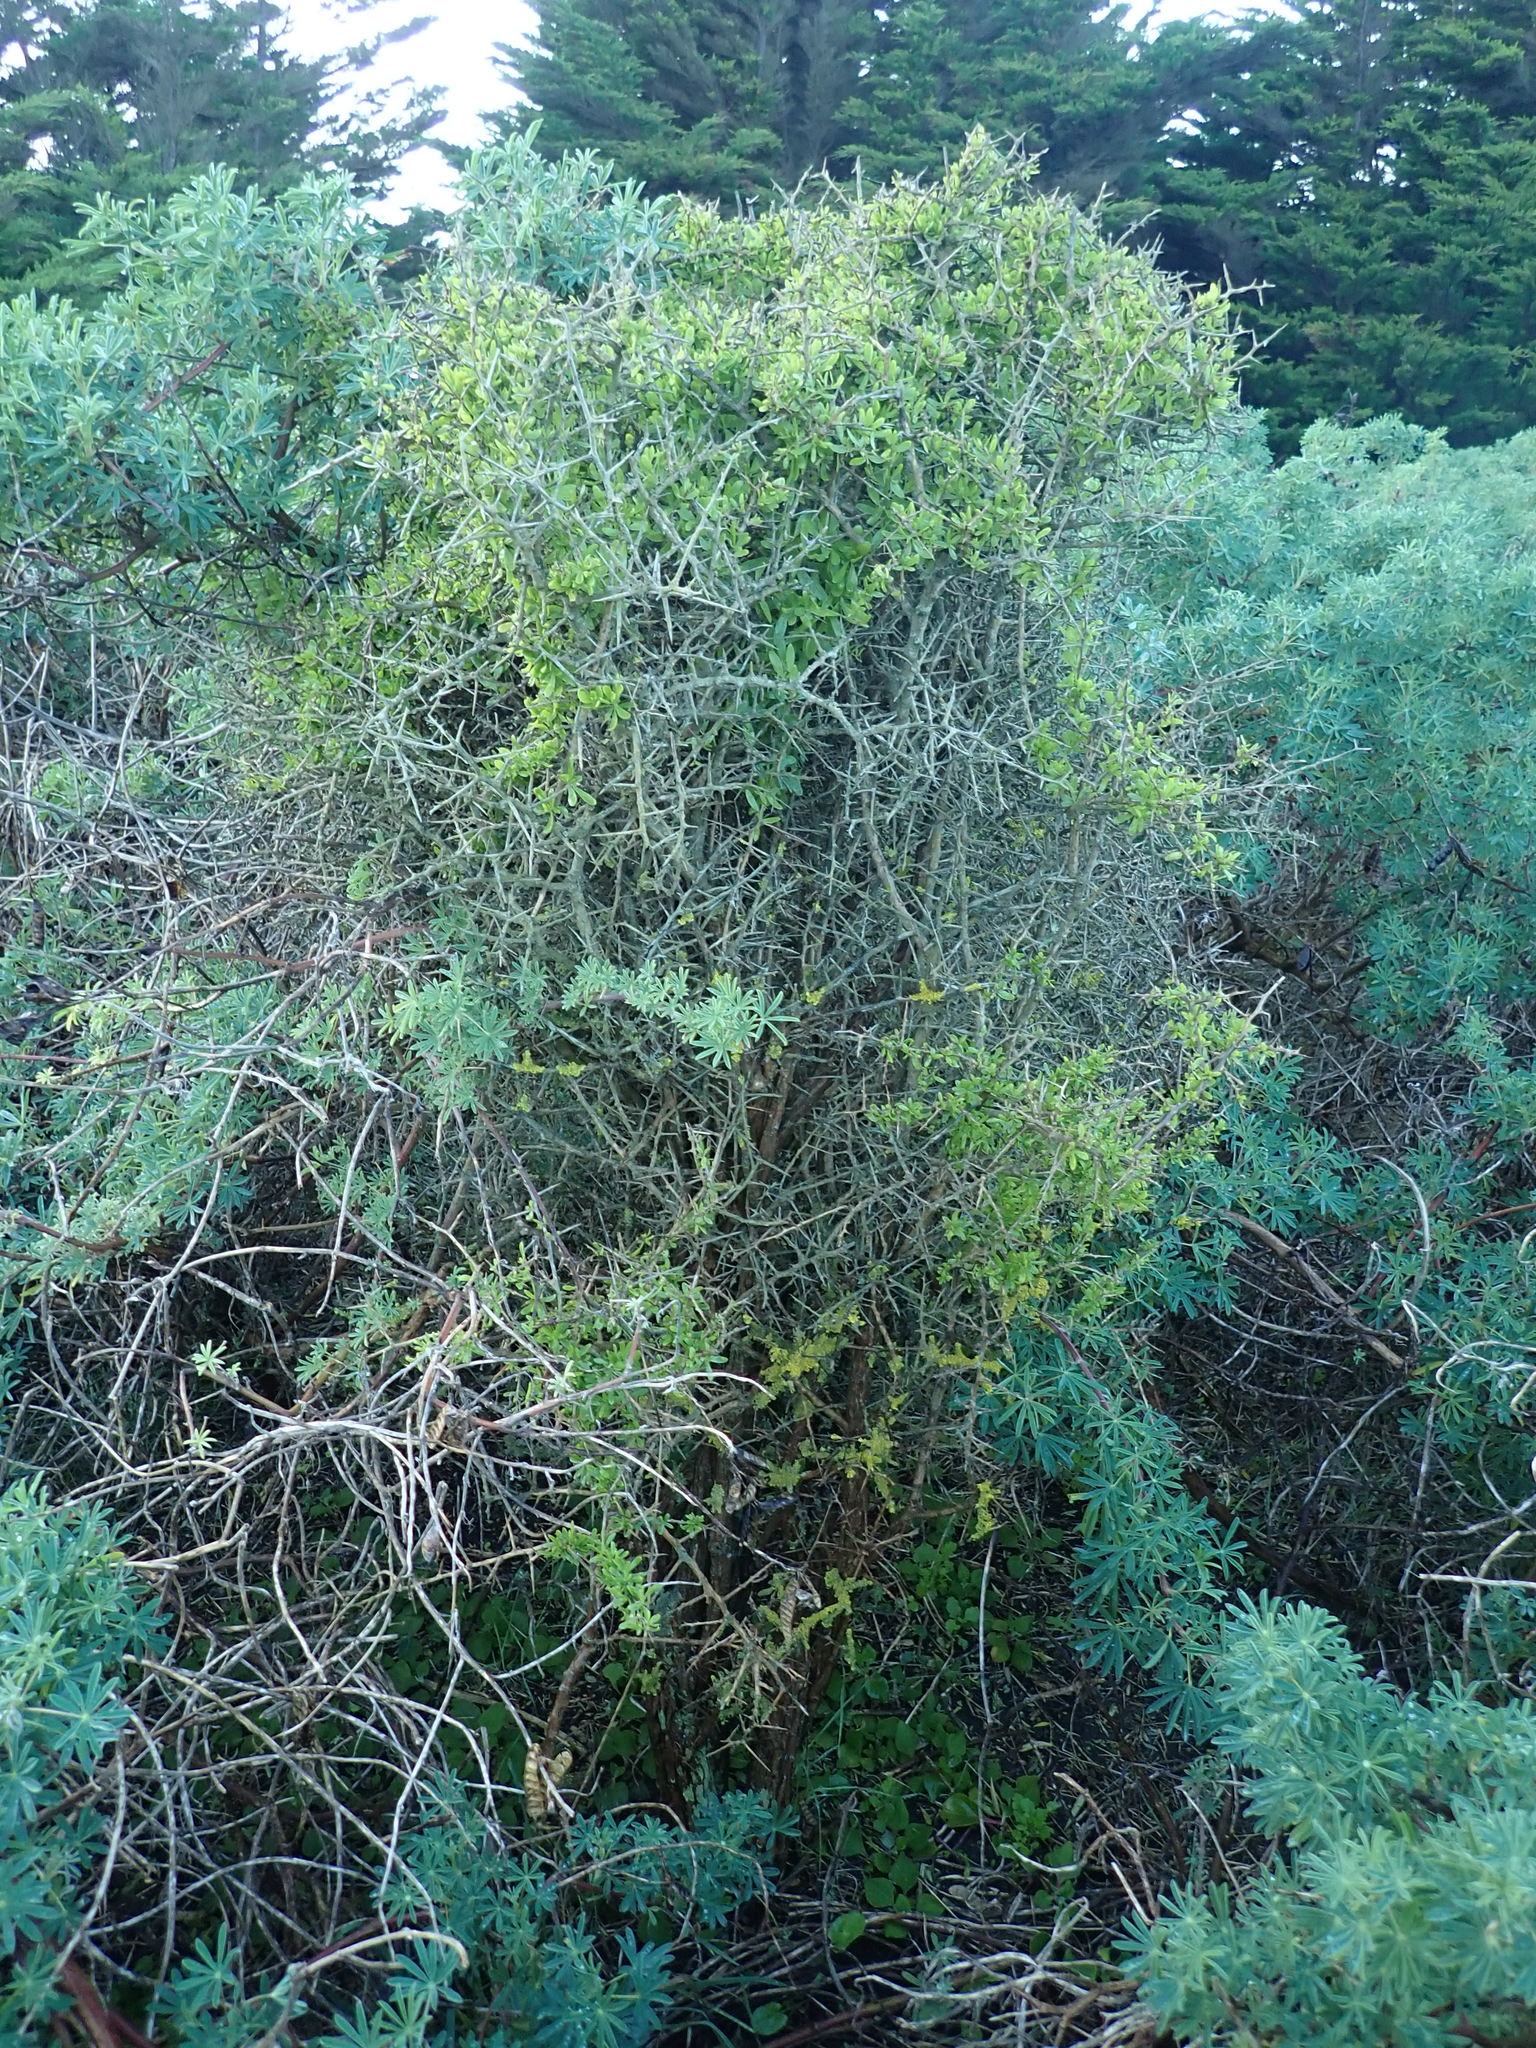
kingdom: Plantae
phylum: Tracheophyta
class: Magnoliopsida
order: Solanales
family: Solanaceae
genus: Lycium
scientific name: Lycium ferocissimum
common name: African boxthorn
